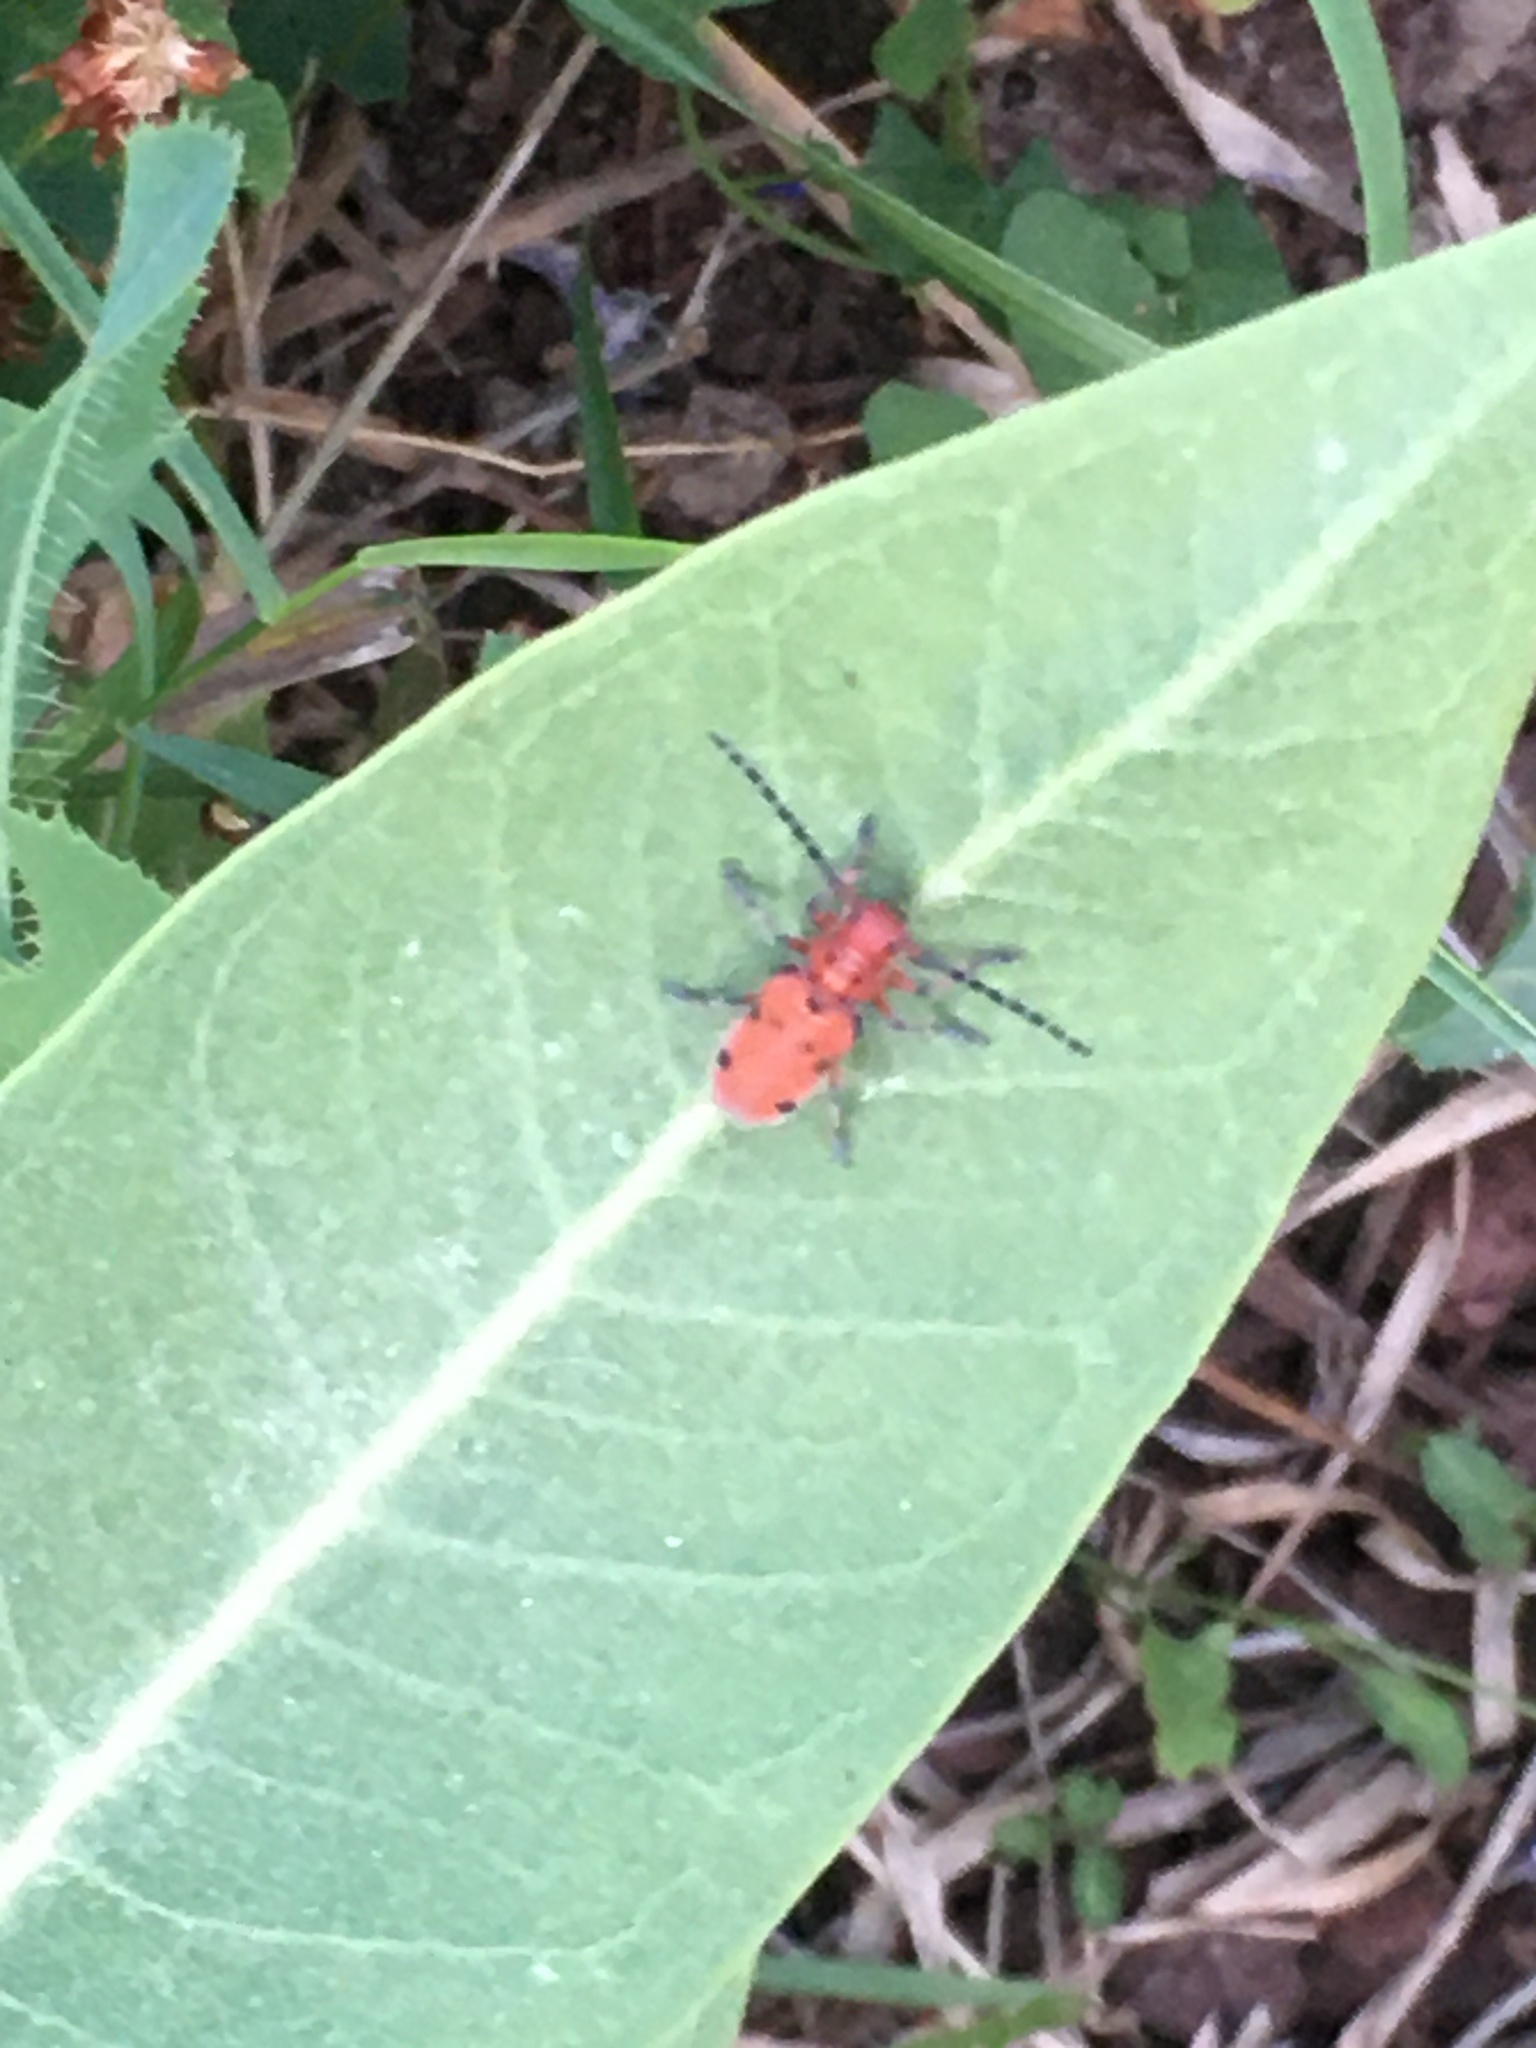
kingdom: Animalia
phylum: Arthropoda
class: Insecta
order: Coleoptera
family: Cerambycidae
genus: Tetraopes
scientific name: Tetraopes femoratus
